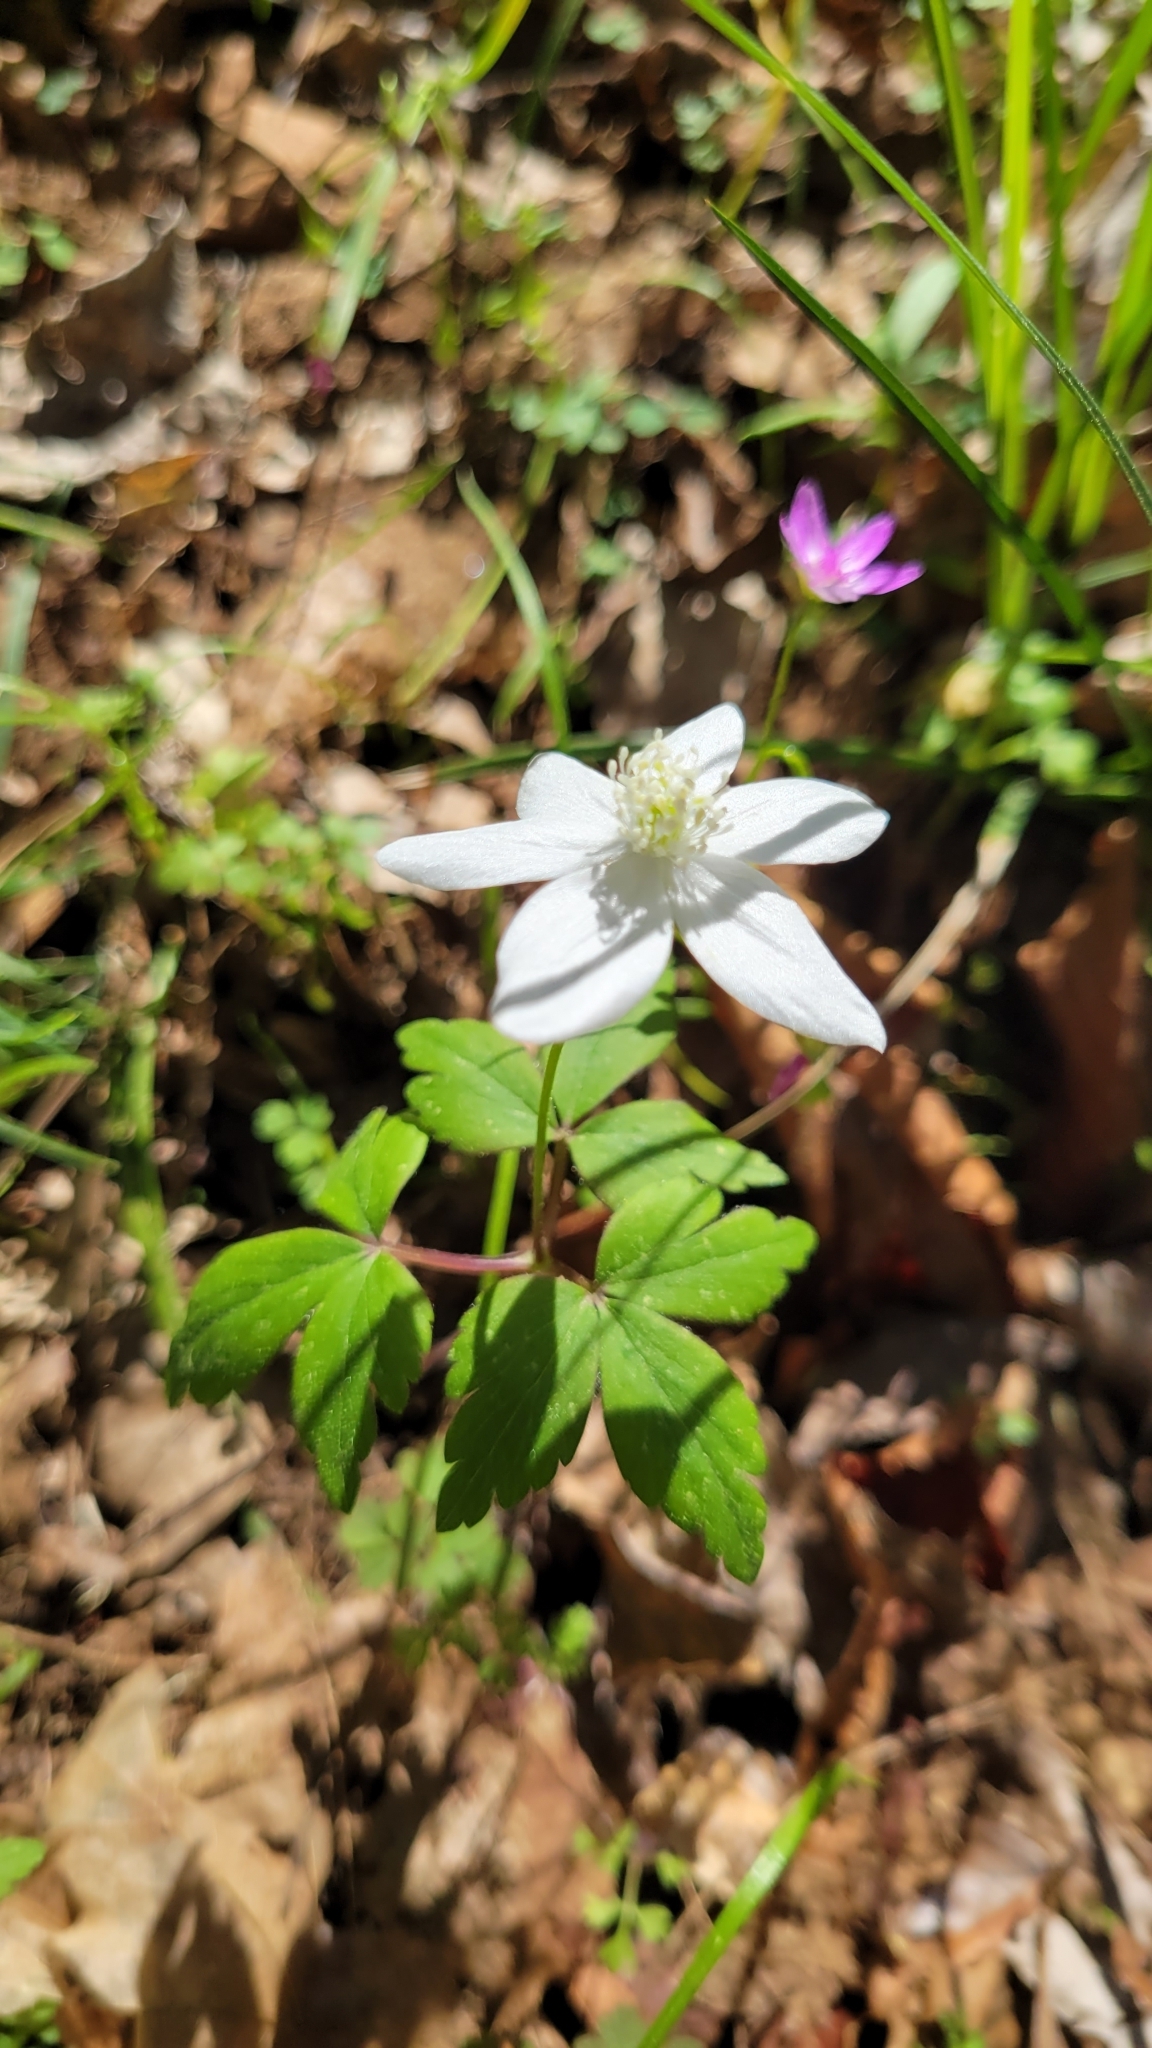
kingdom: Plantae
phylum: Tracheophyta
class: Magnoliopsida
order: Ranunculales
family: Ranunculaceae
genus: Anemone
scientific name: Anemone quinquefolia
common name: Wood anemone
